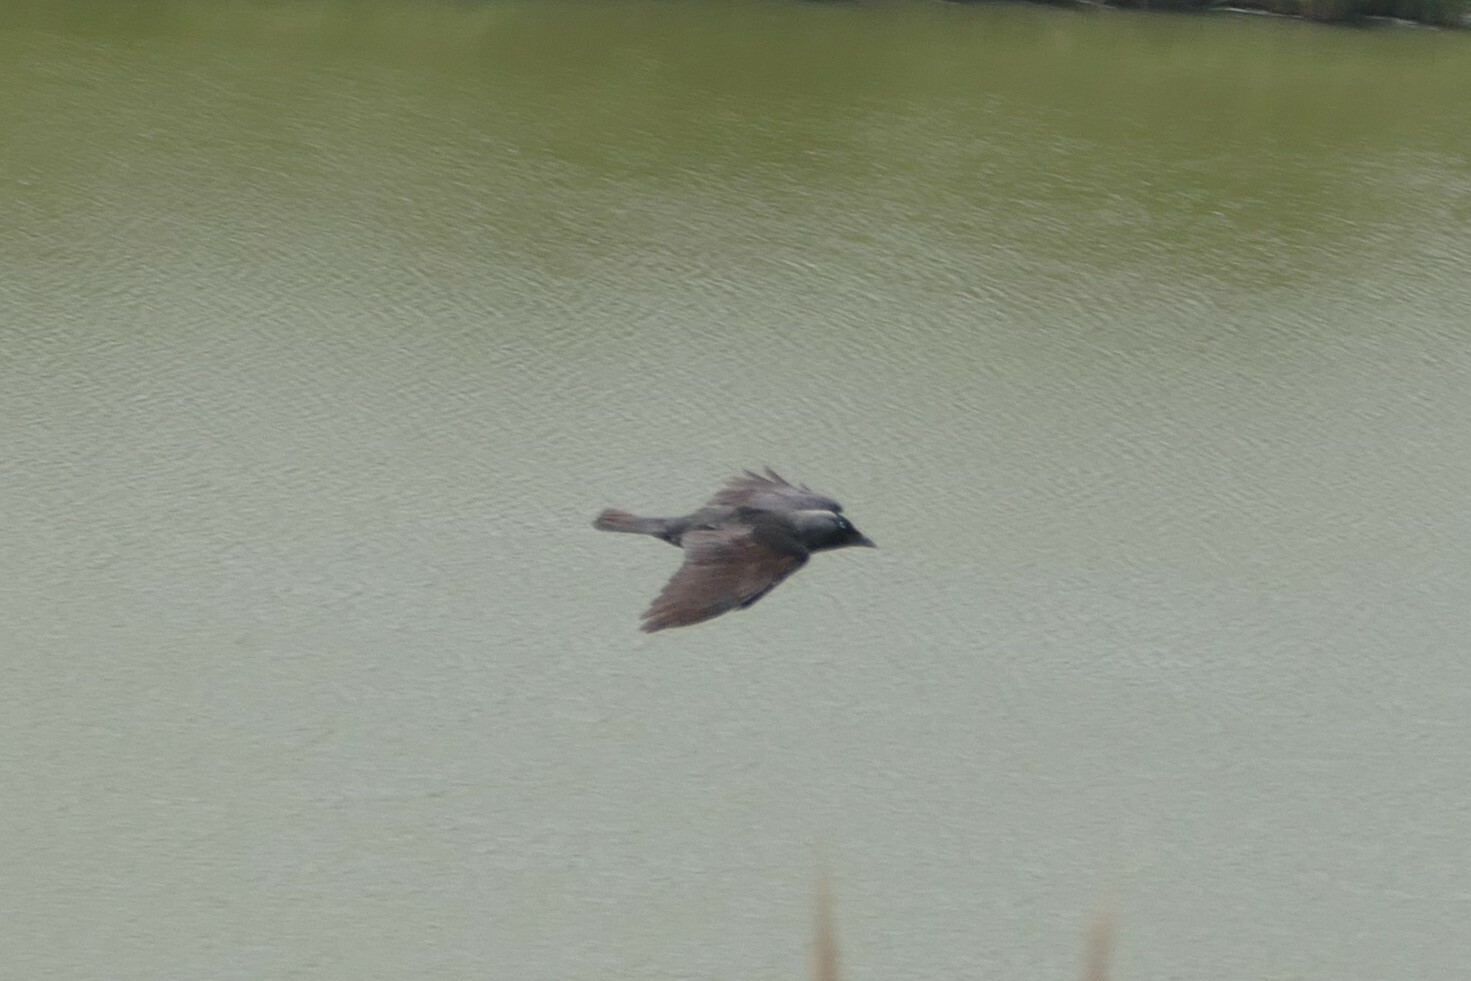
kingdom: Animalia
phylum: Chordata
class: Aves
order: Passeriformes
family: Corvidae
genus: Coloeus
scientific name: Coloeus monedula
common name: Western jackdaw
